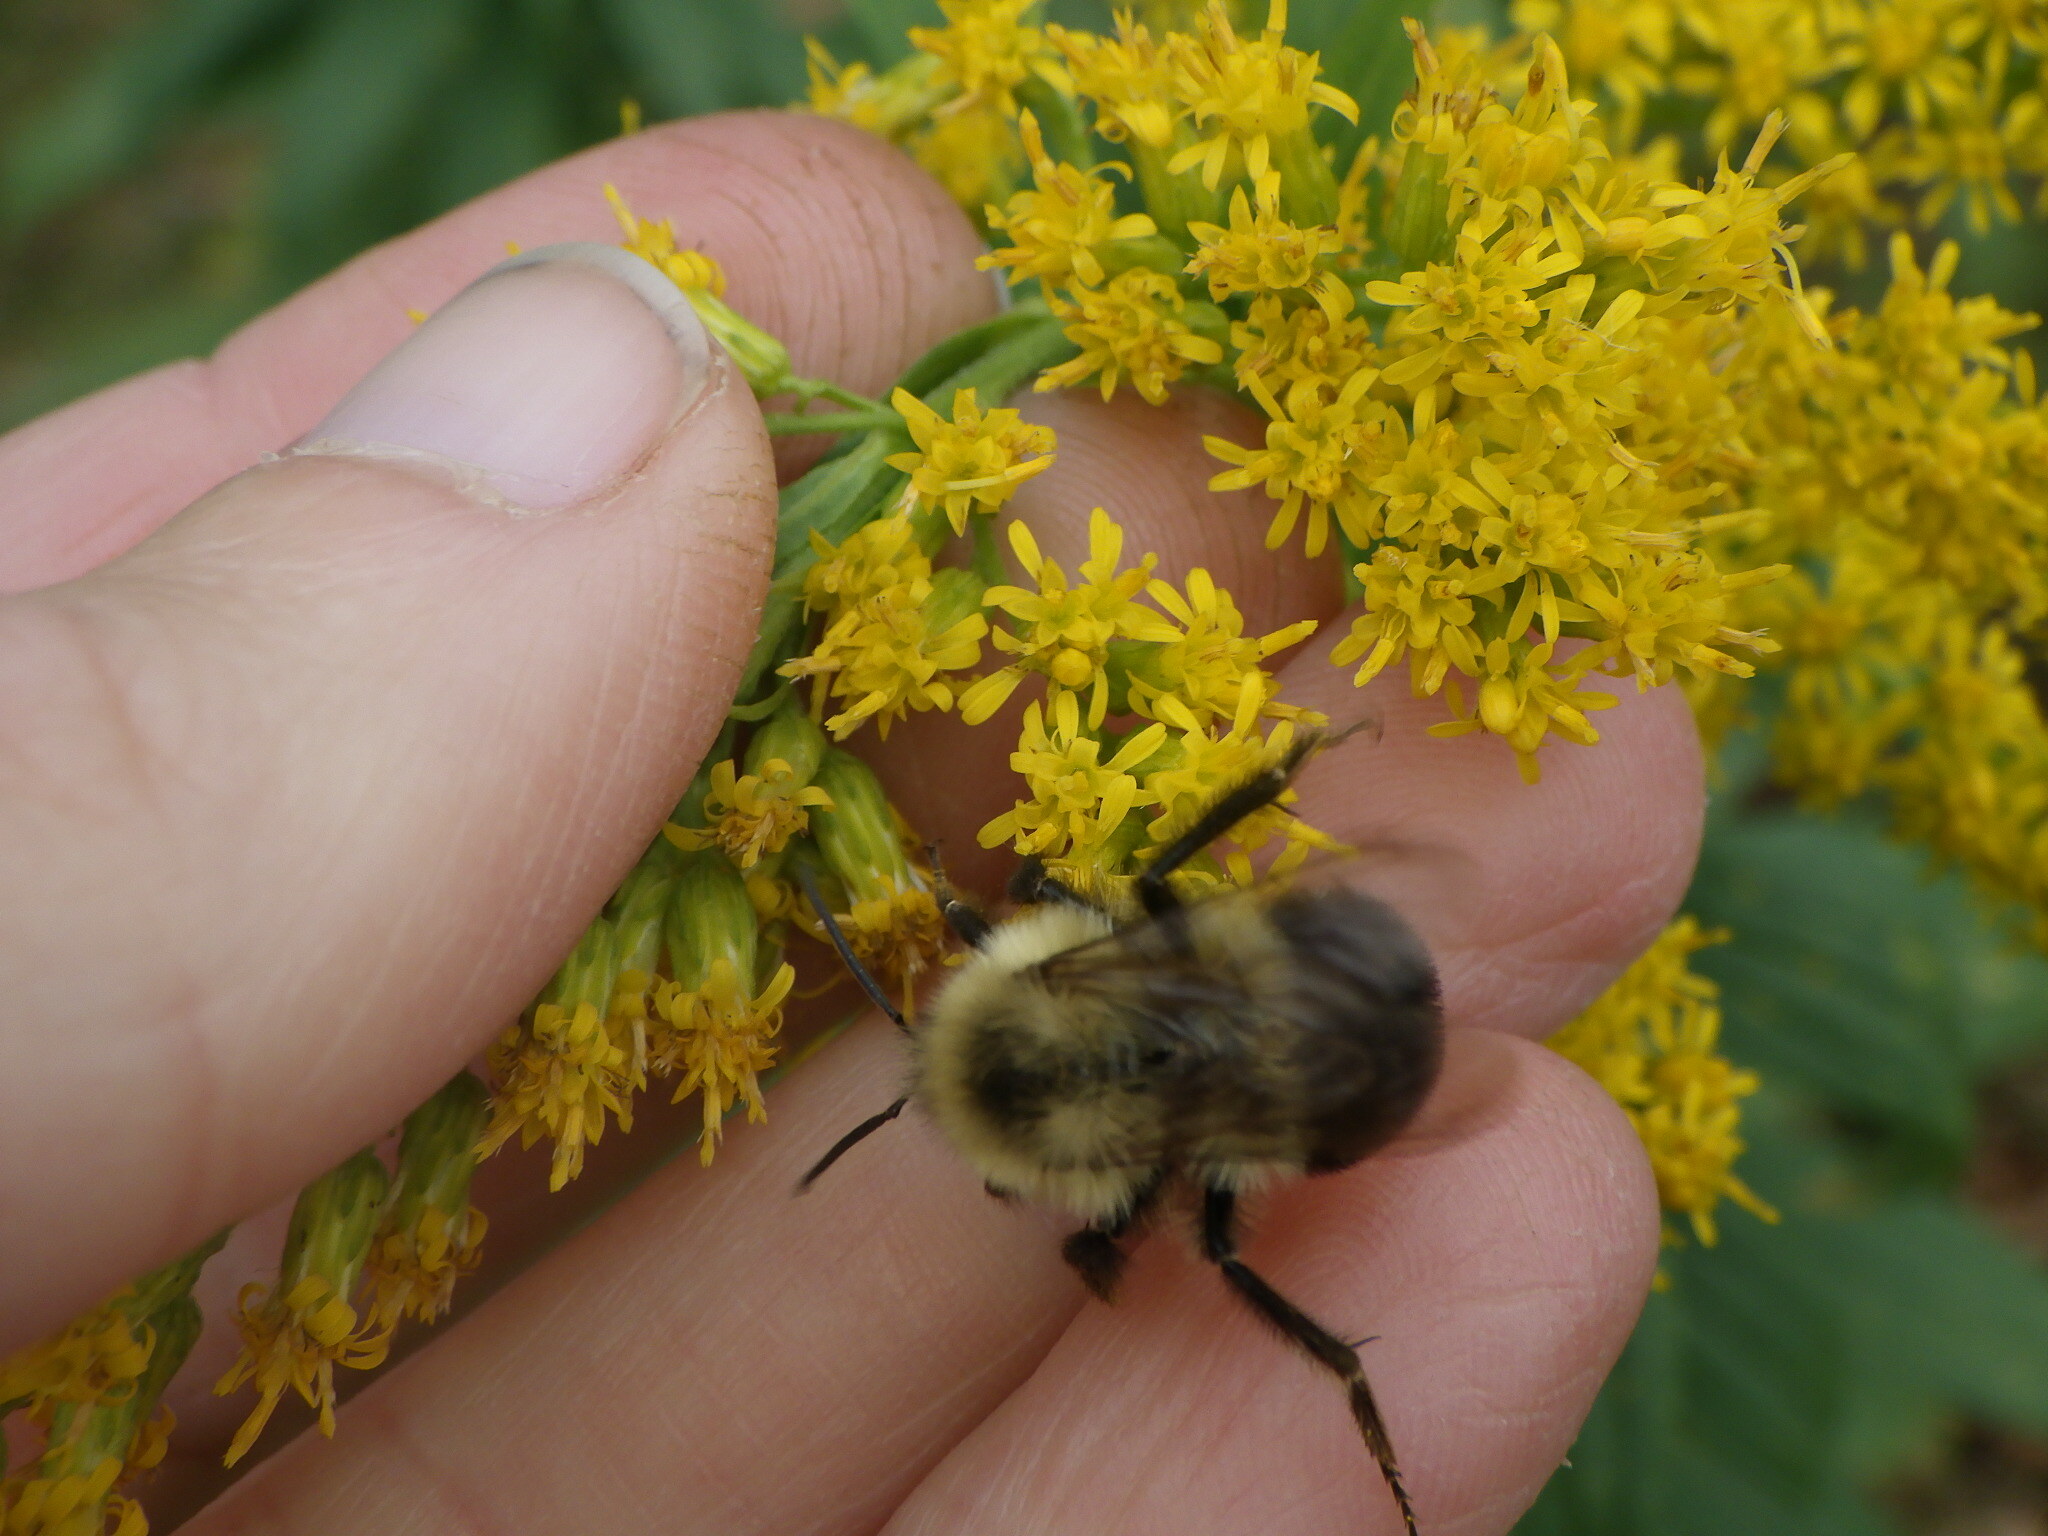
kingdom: Animalia
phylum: Arthropoda
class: Insecta
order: Hymenoptera
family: Apidae
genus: Bombus
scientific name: Bombus impatiens
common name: Common eastern bumble bee
